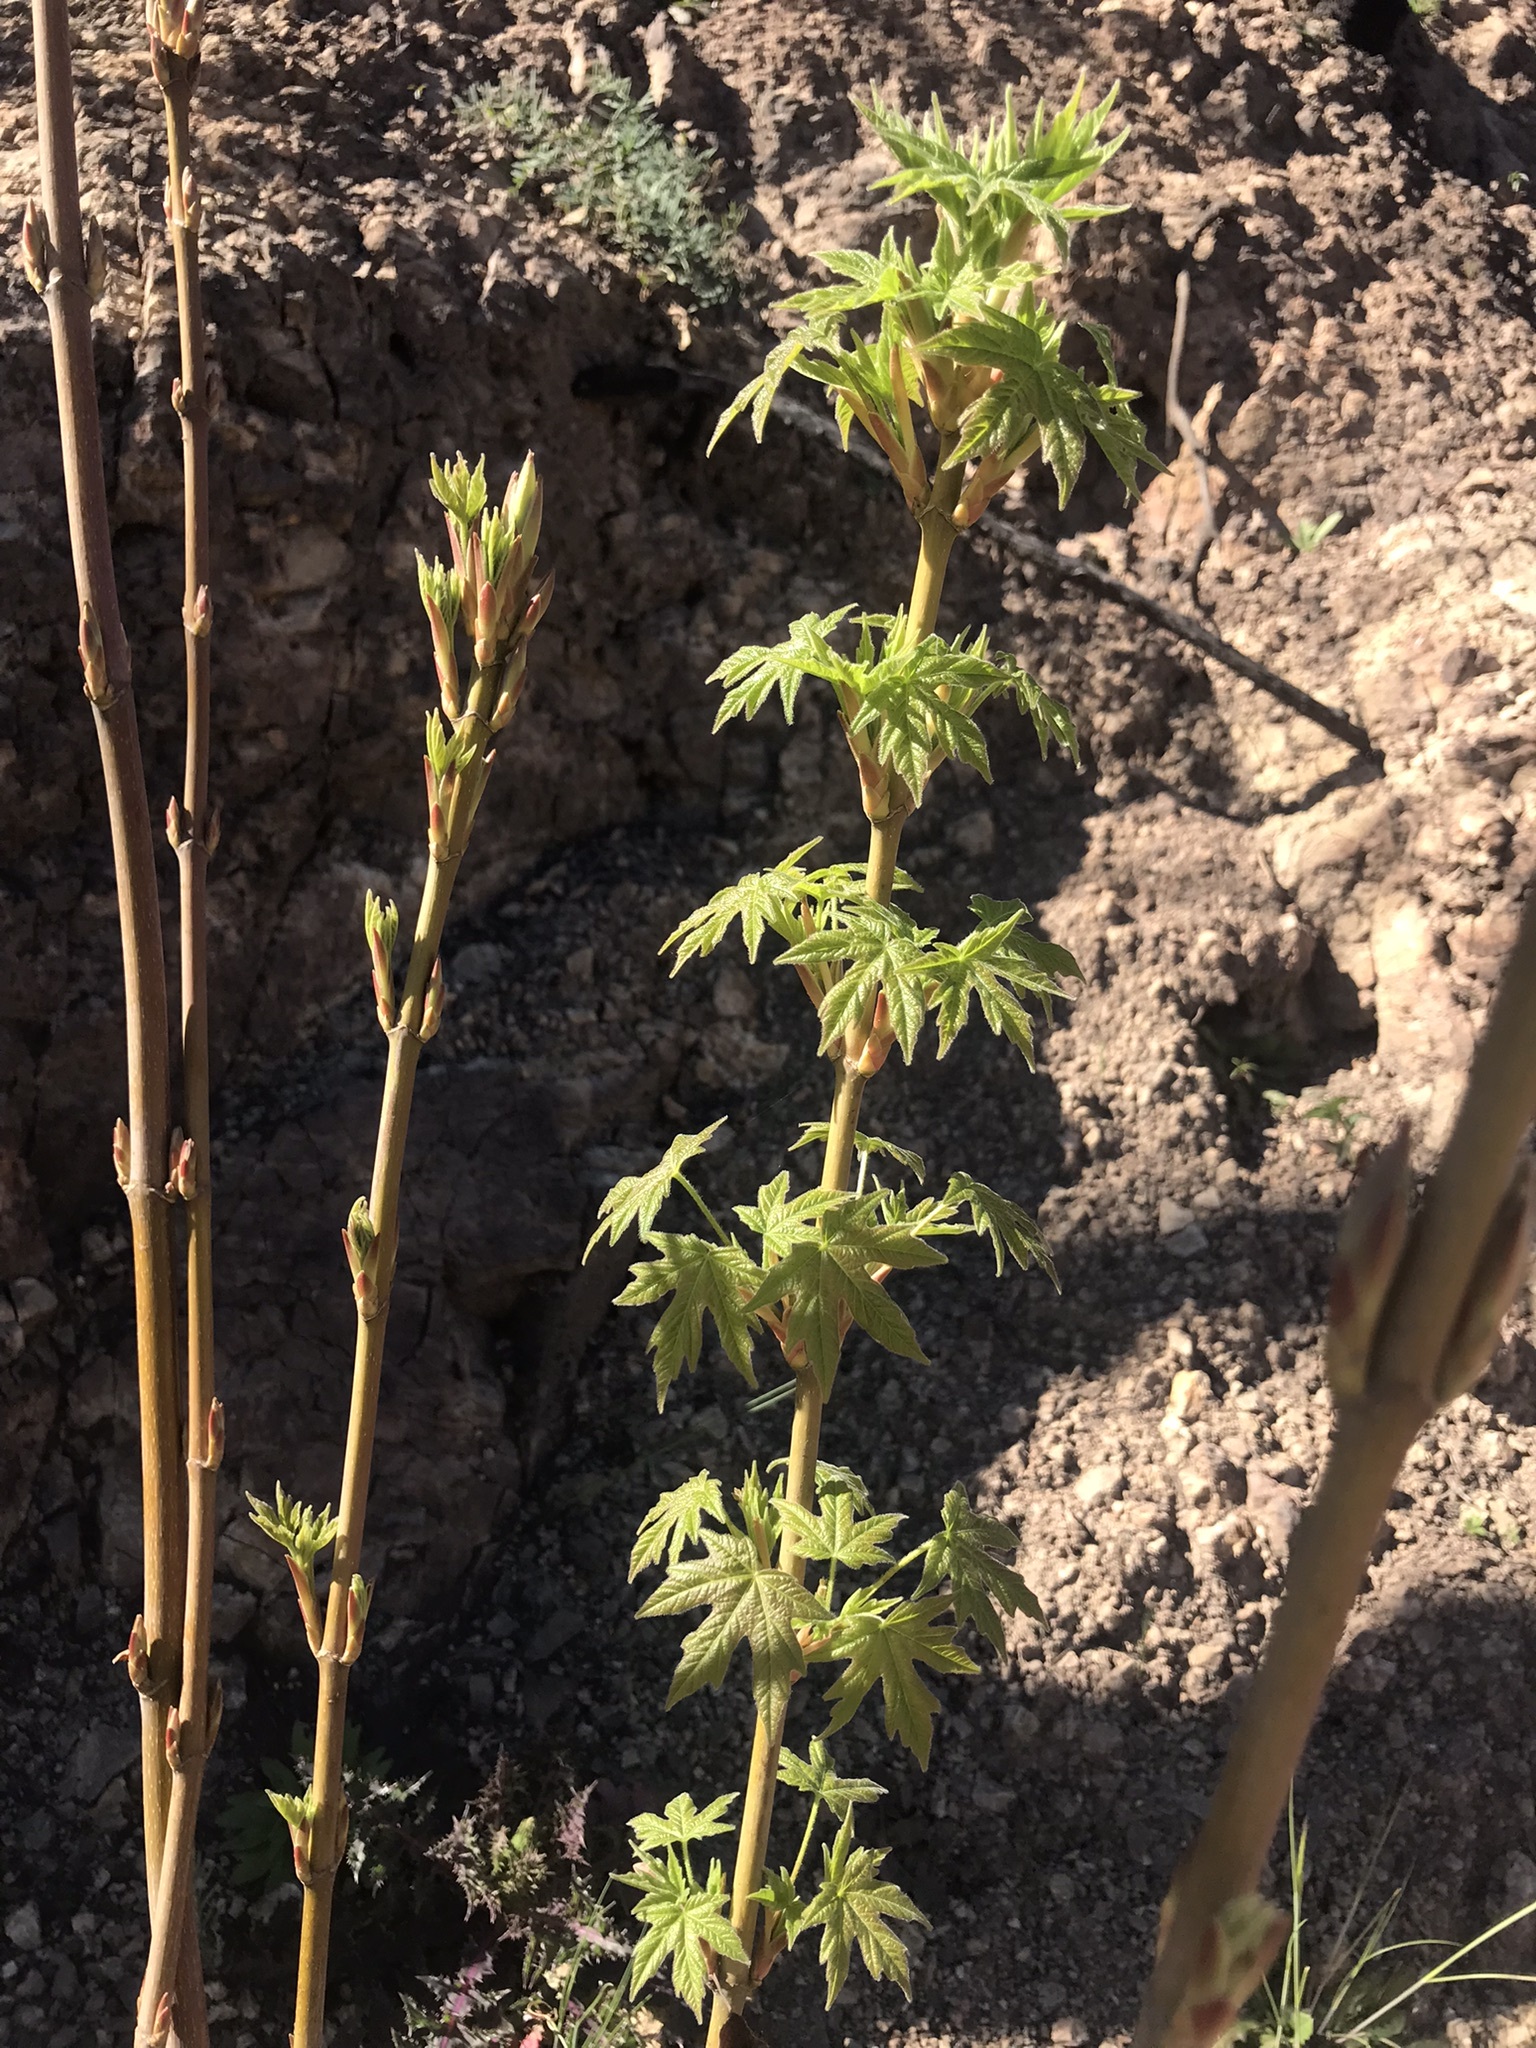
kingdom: Plantae
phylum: Tracheophyta
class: Magnoliopsida
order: Sapindales
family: Sapindaceae
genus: Acer
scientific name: Acer macrophyllum
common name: Oregon maple
